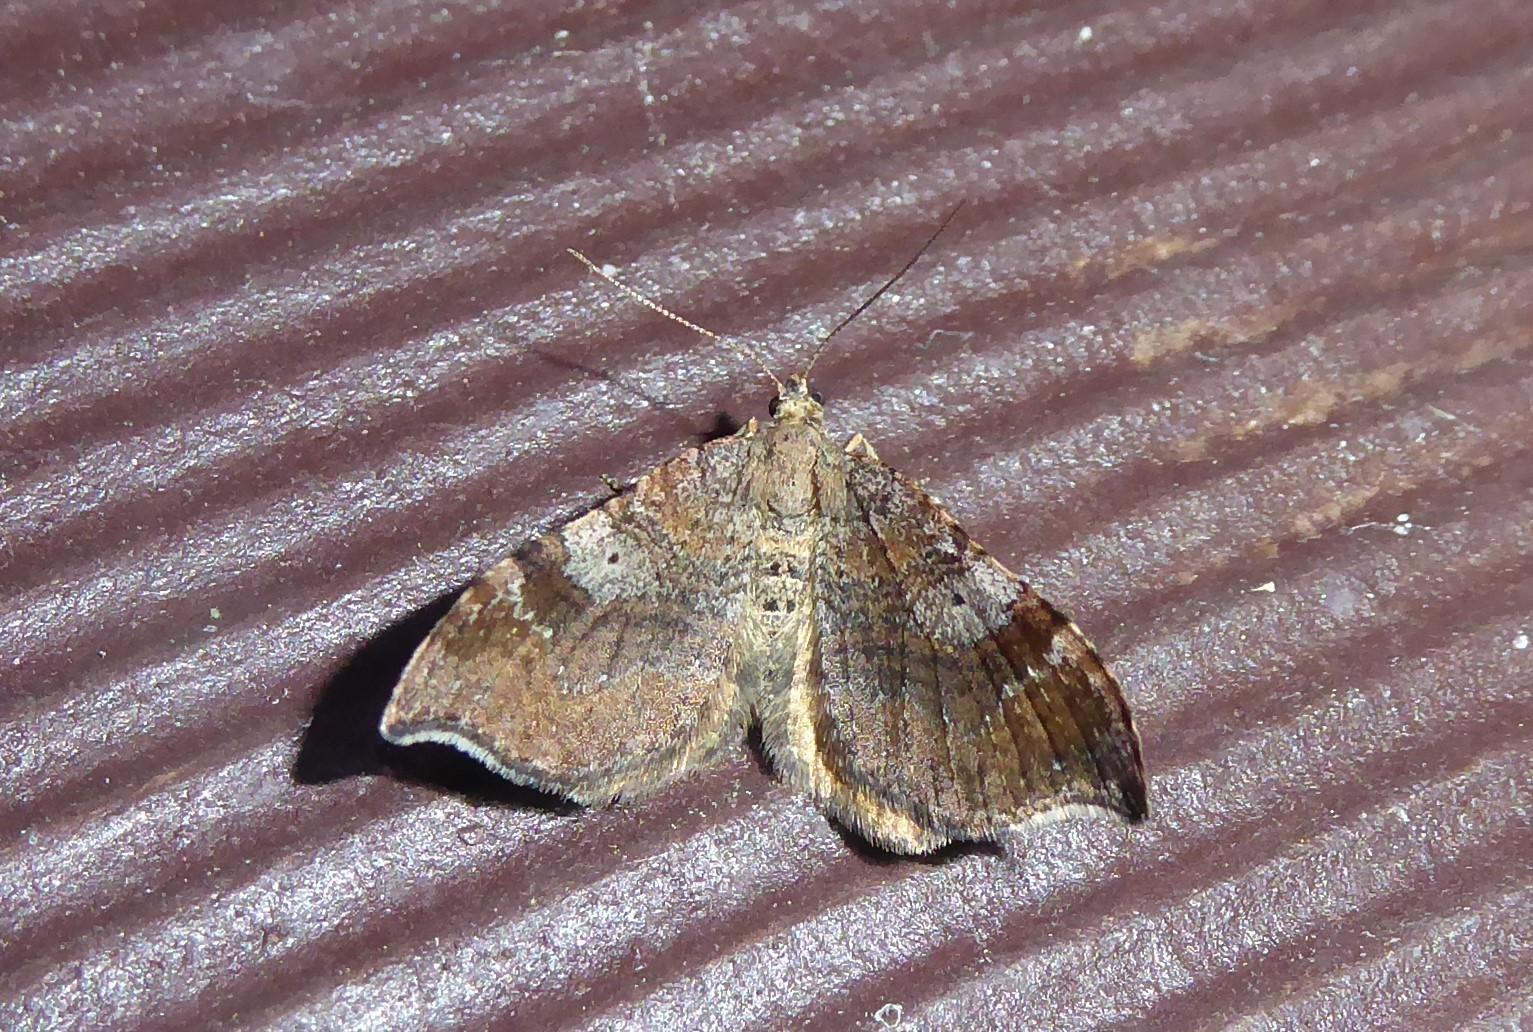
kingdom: Animalia
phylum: Arthropoda
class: Insecta
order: Lepidoptera
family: Geometridae
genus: Homodotis
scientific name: Homodotis megaspilata
